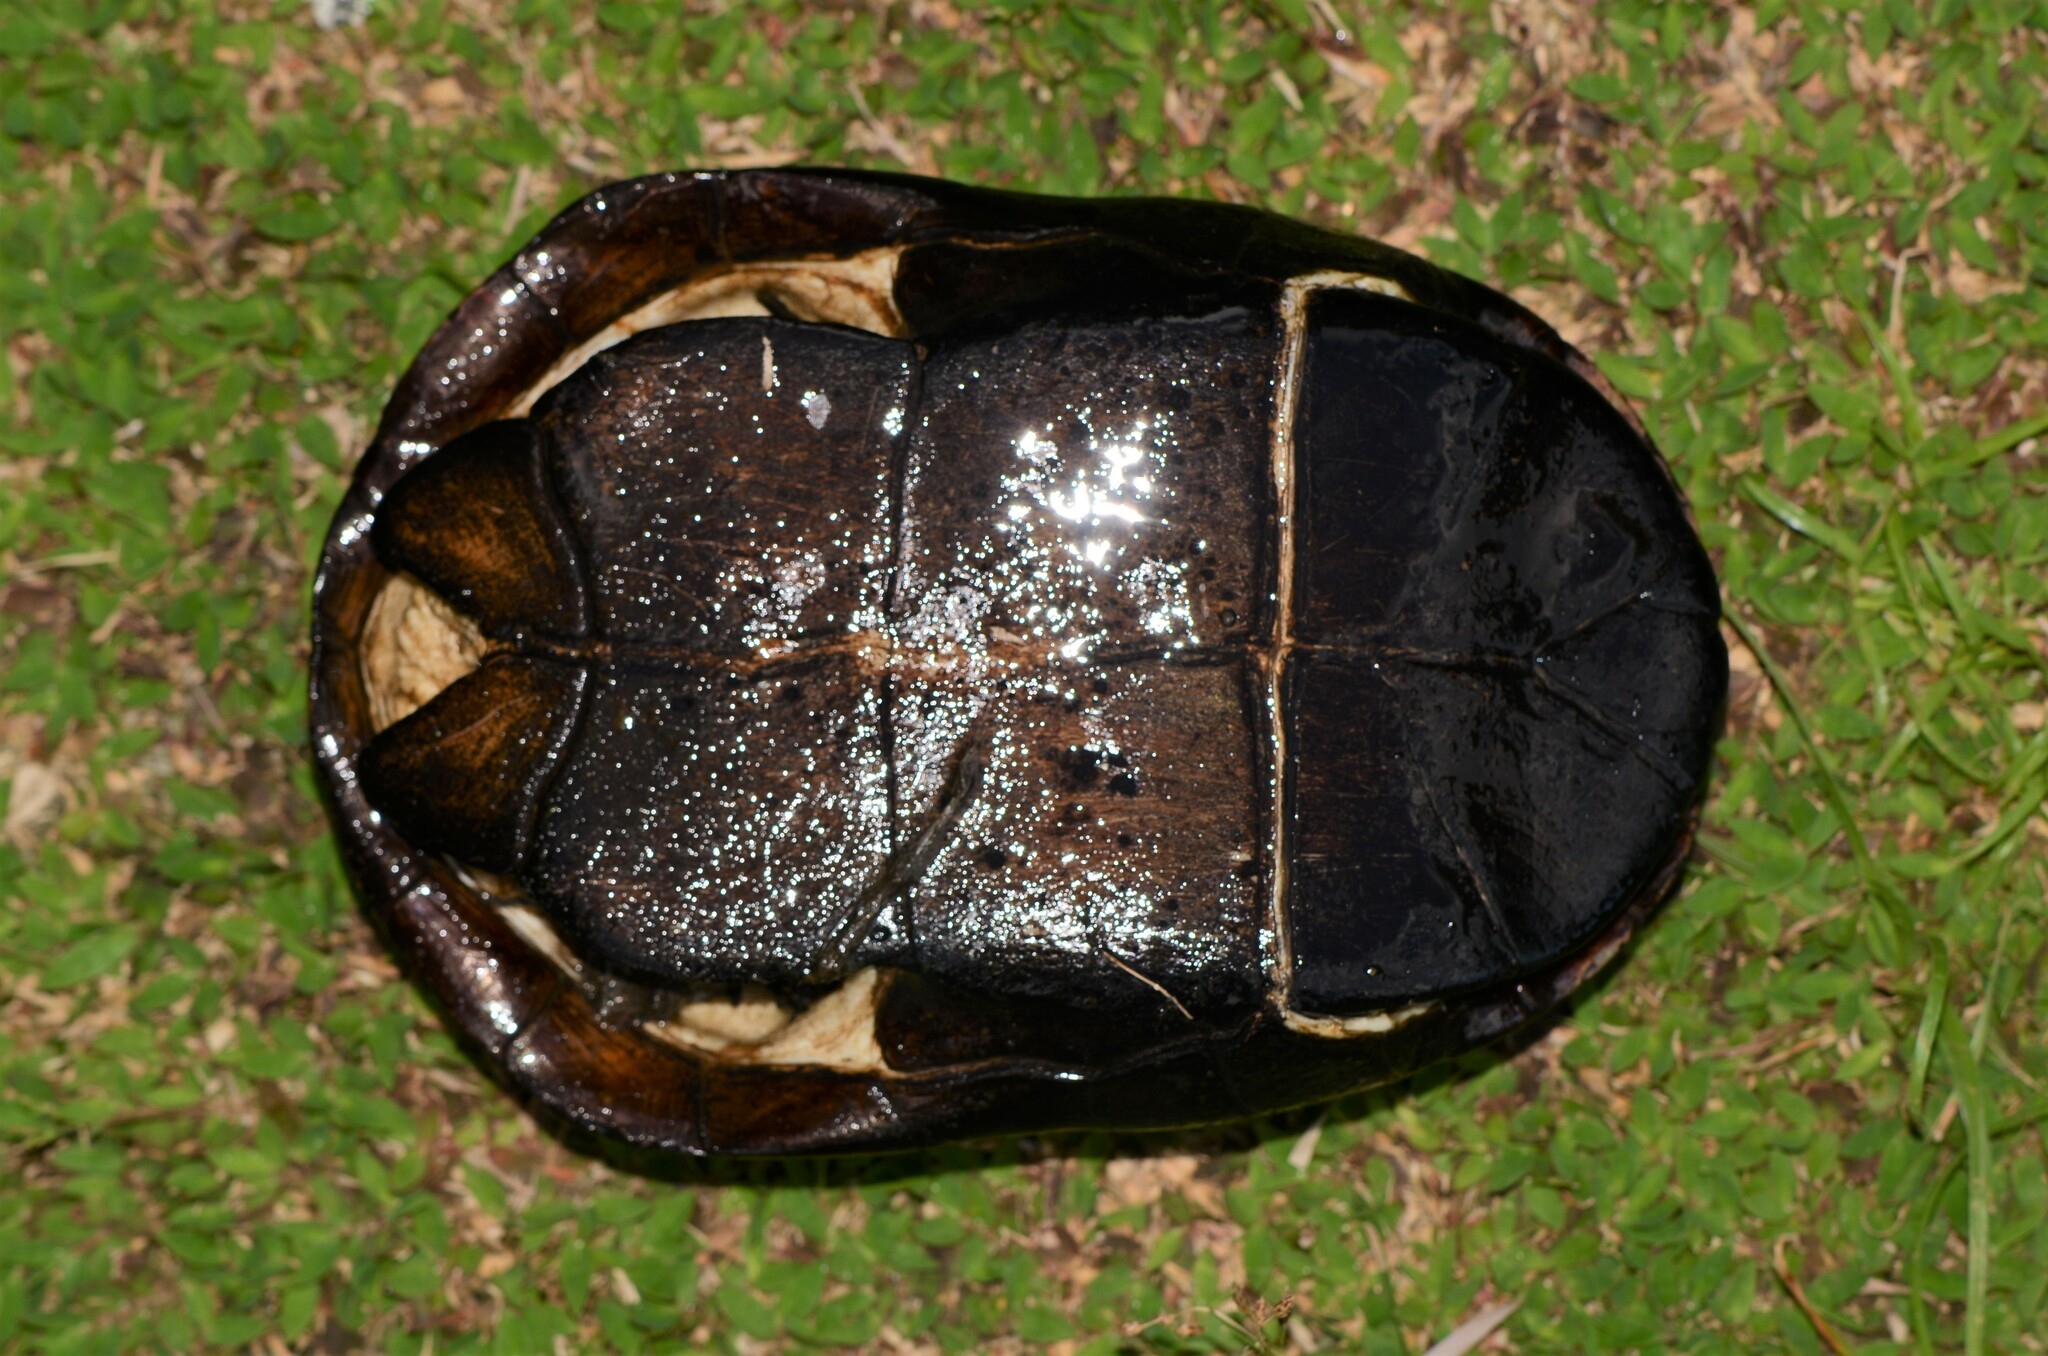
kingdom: Animalia
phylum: Chordata
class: Testudines
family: Pelomedusidae
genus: Pelusios
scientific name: Pelusios castanoides
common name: Yellow-bellied mud turtle
